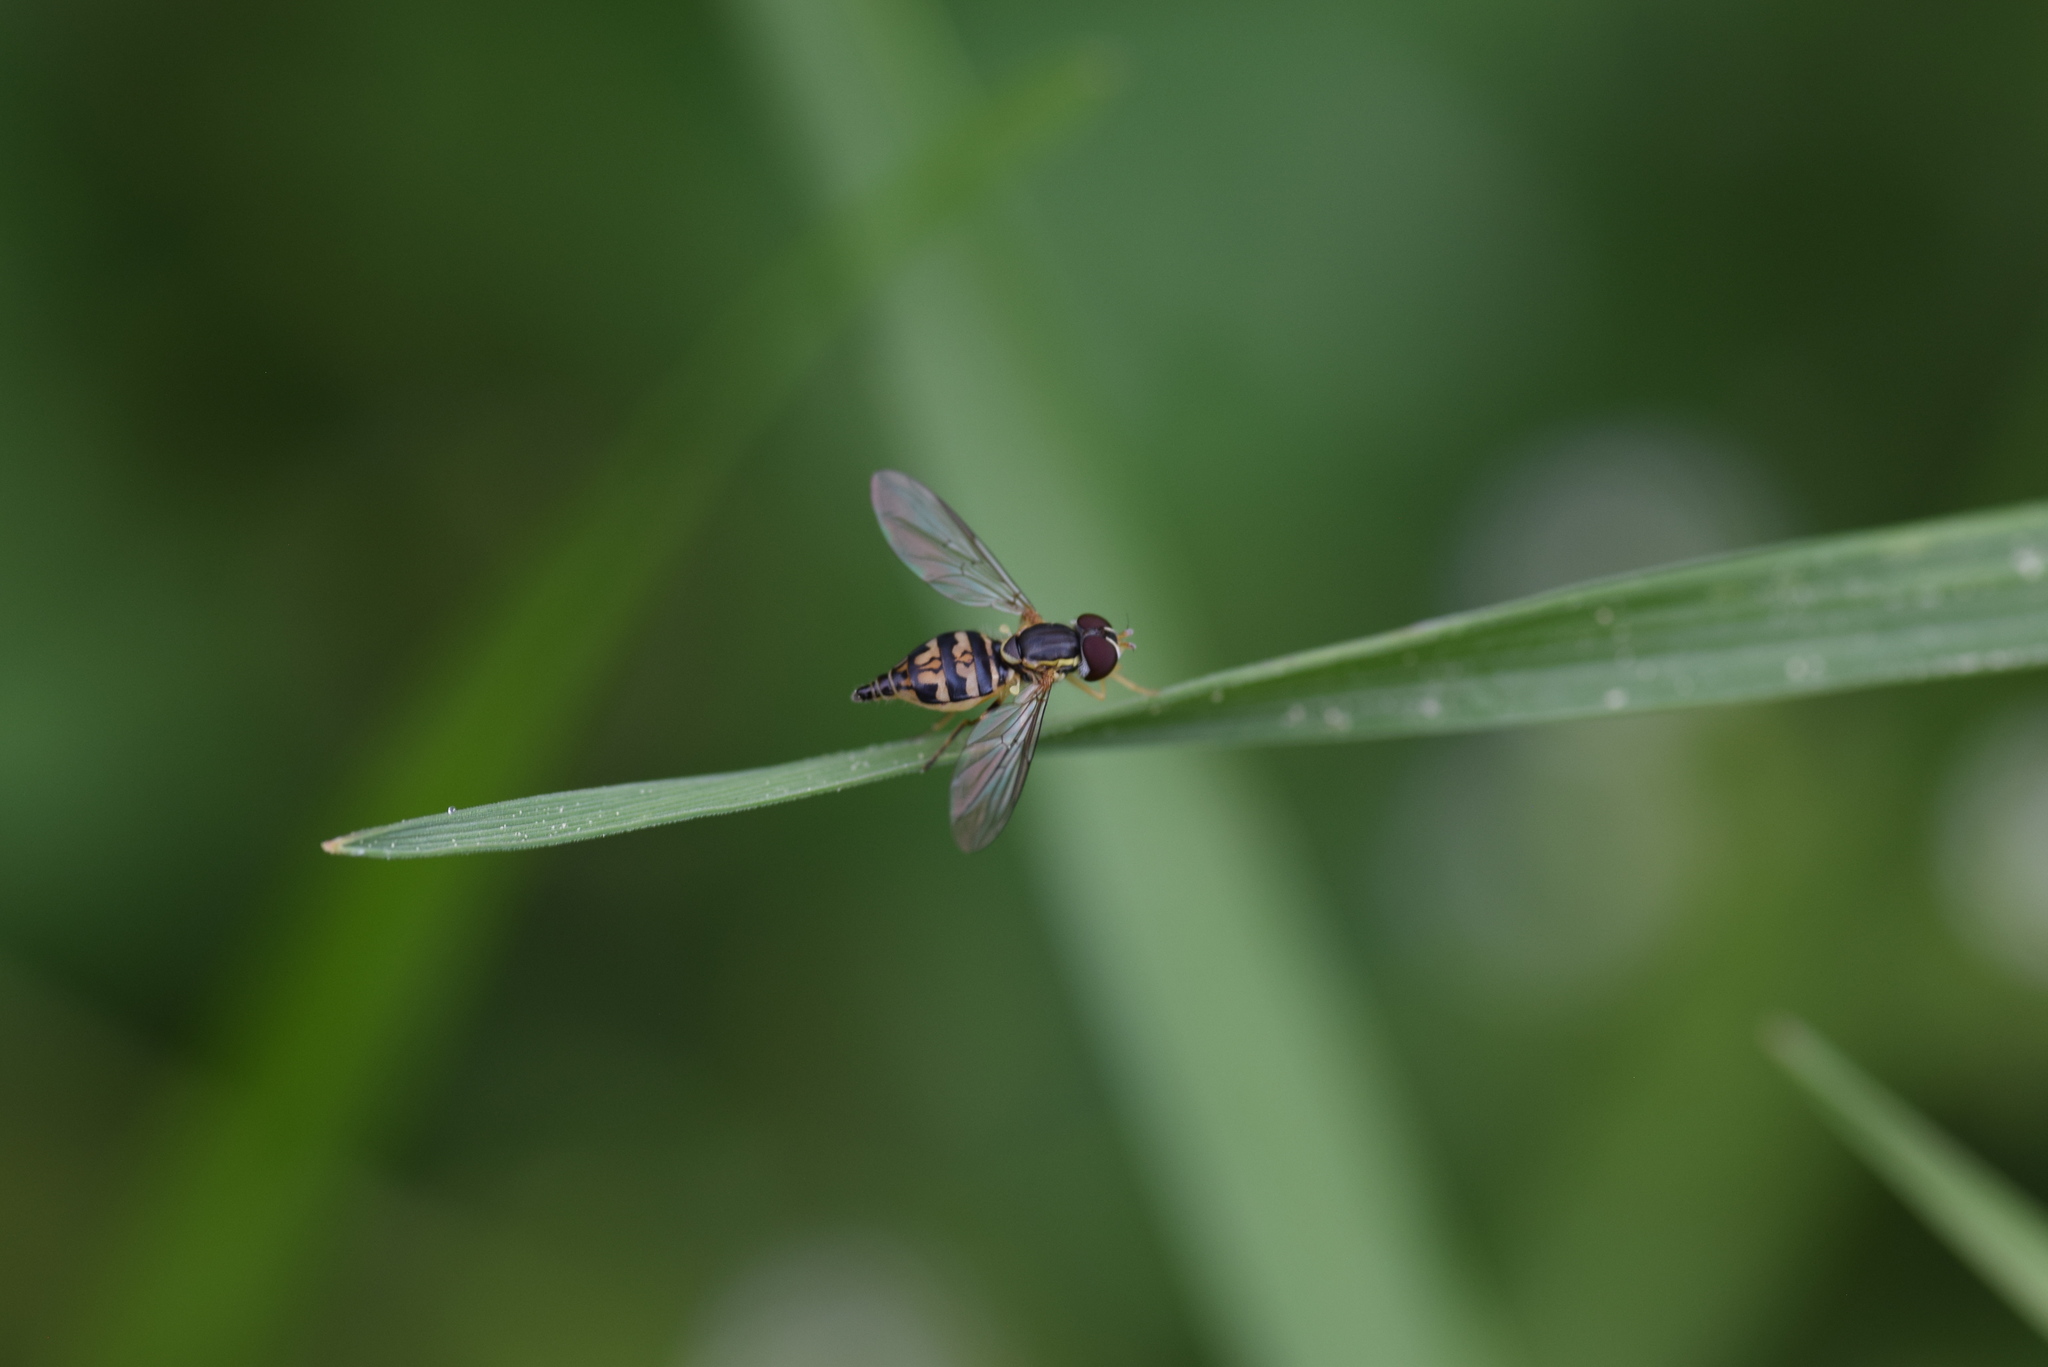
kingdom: Animalia
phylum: Arthropoda
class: Insecta
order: Diptera
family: Syrphidae
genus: Toxomerus
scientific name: Toxomerus geminatus
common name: Eastern calligrapher
